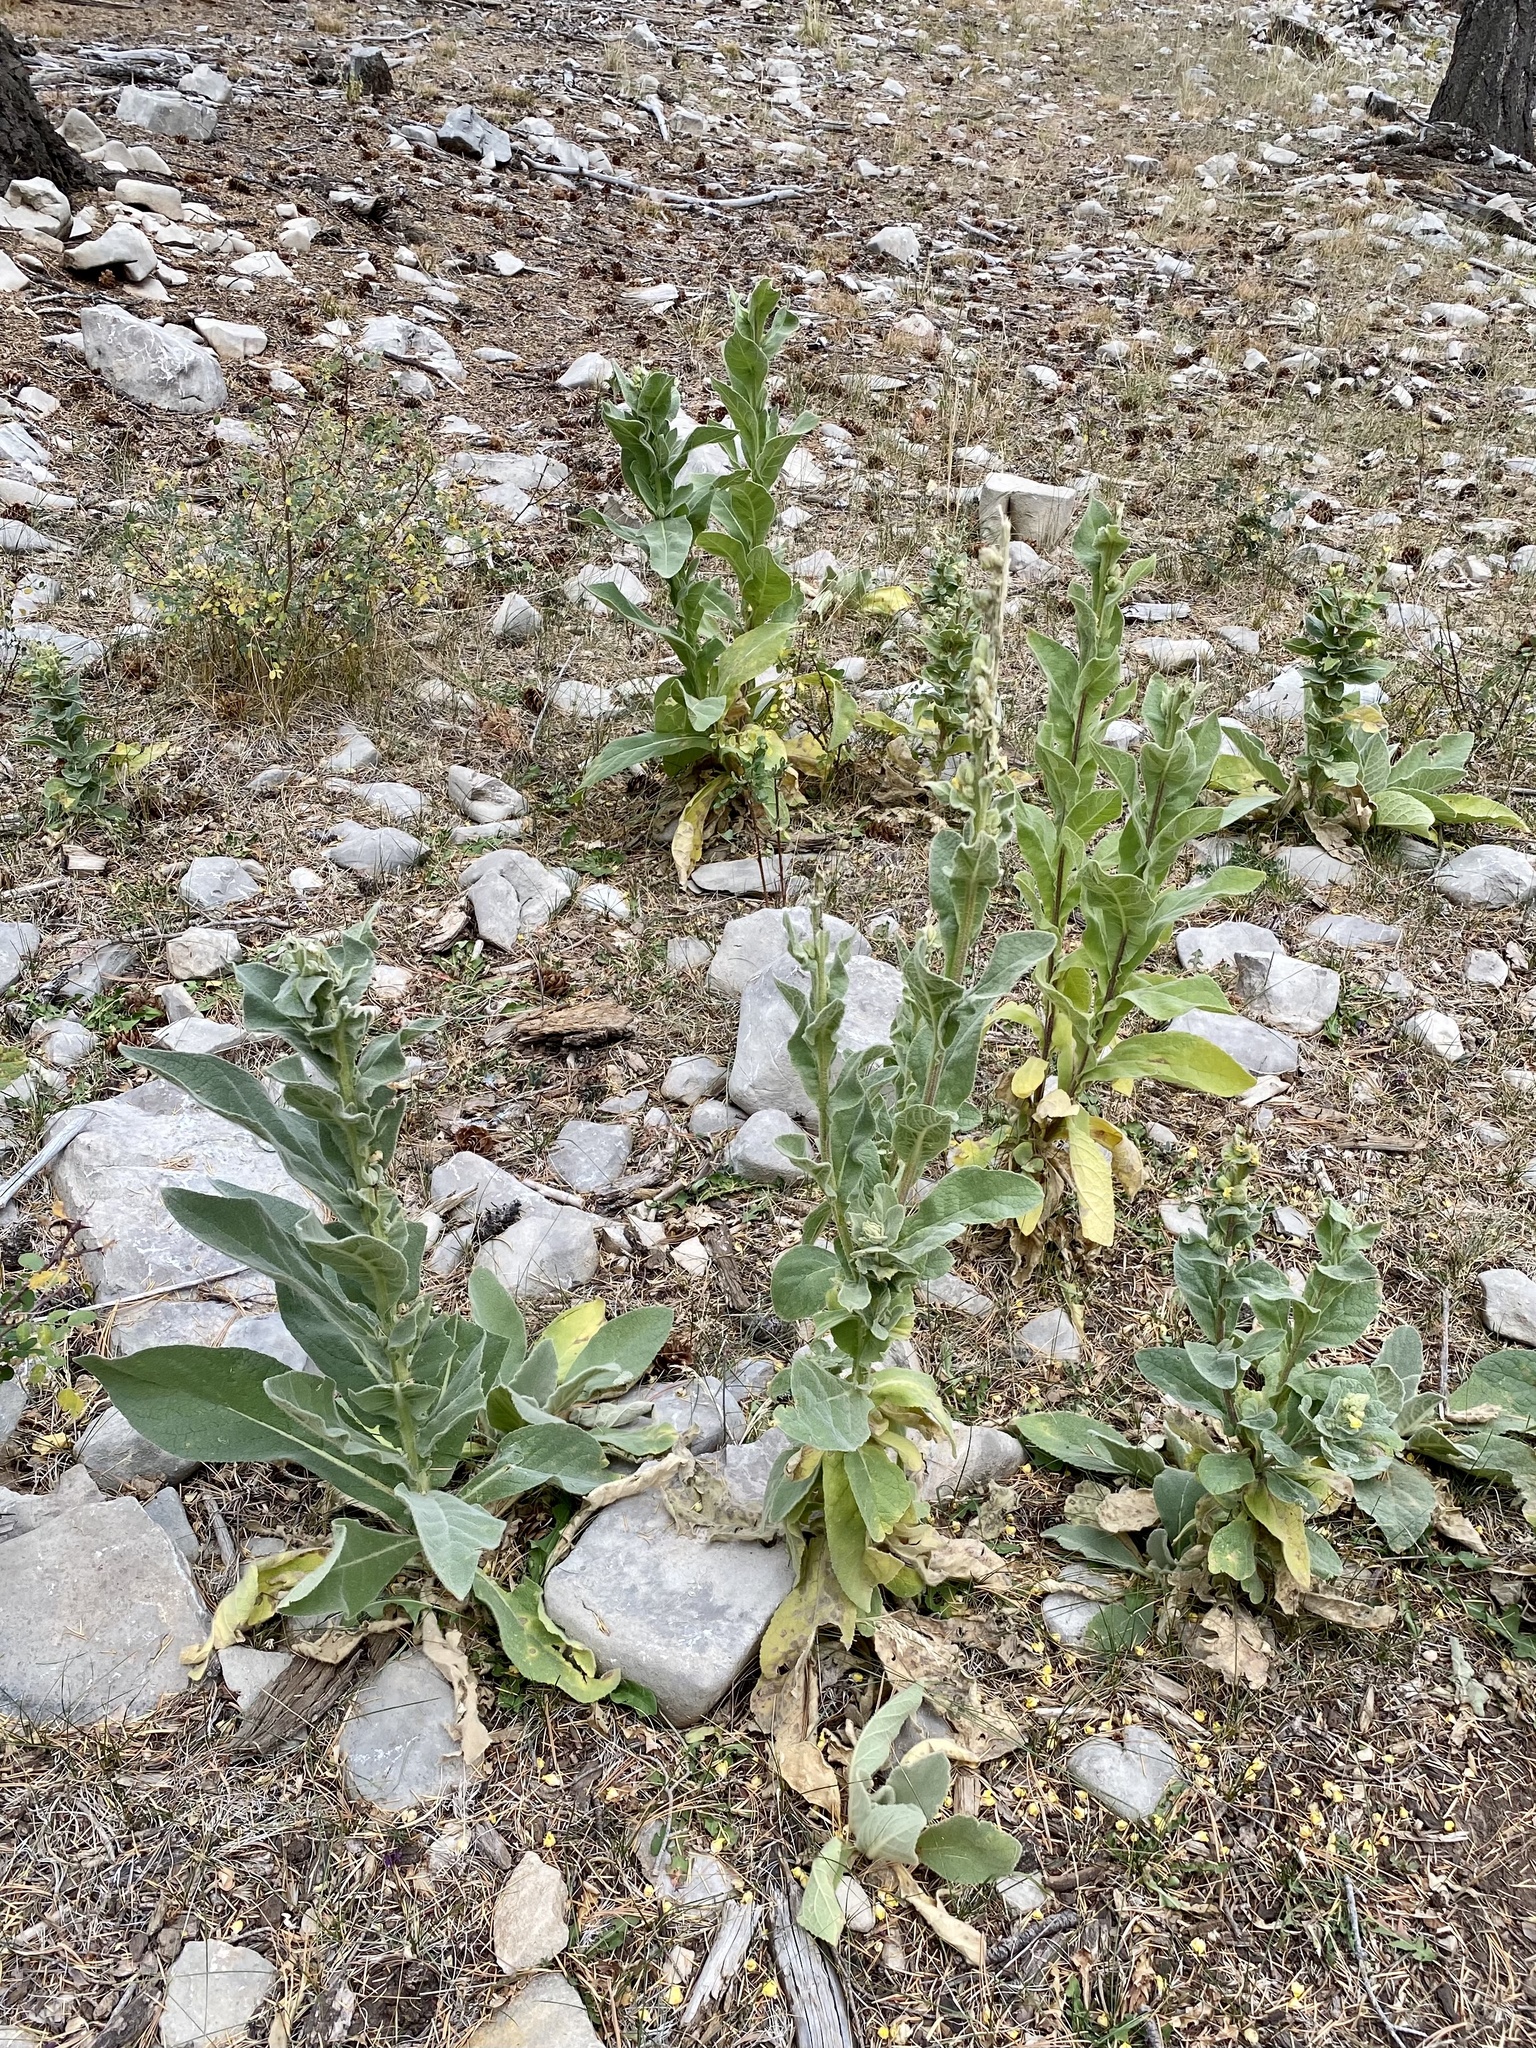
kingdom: Plantae
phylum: Tracheophyta
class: Magnoliopsida
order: Lamiales
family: Scrophulariaceae
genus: Verbascum
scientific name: Verbascum thapsus
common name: Common mullein
